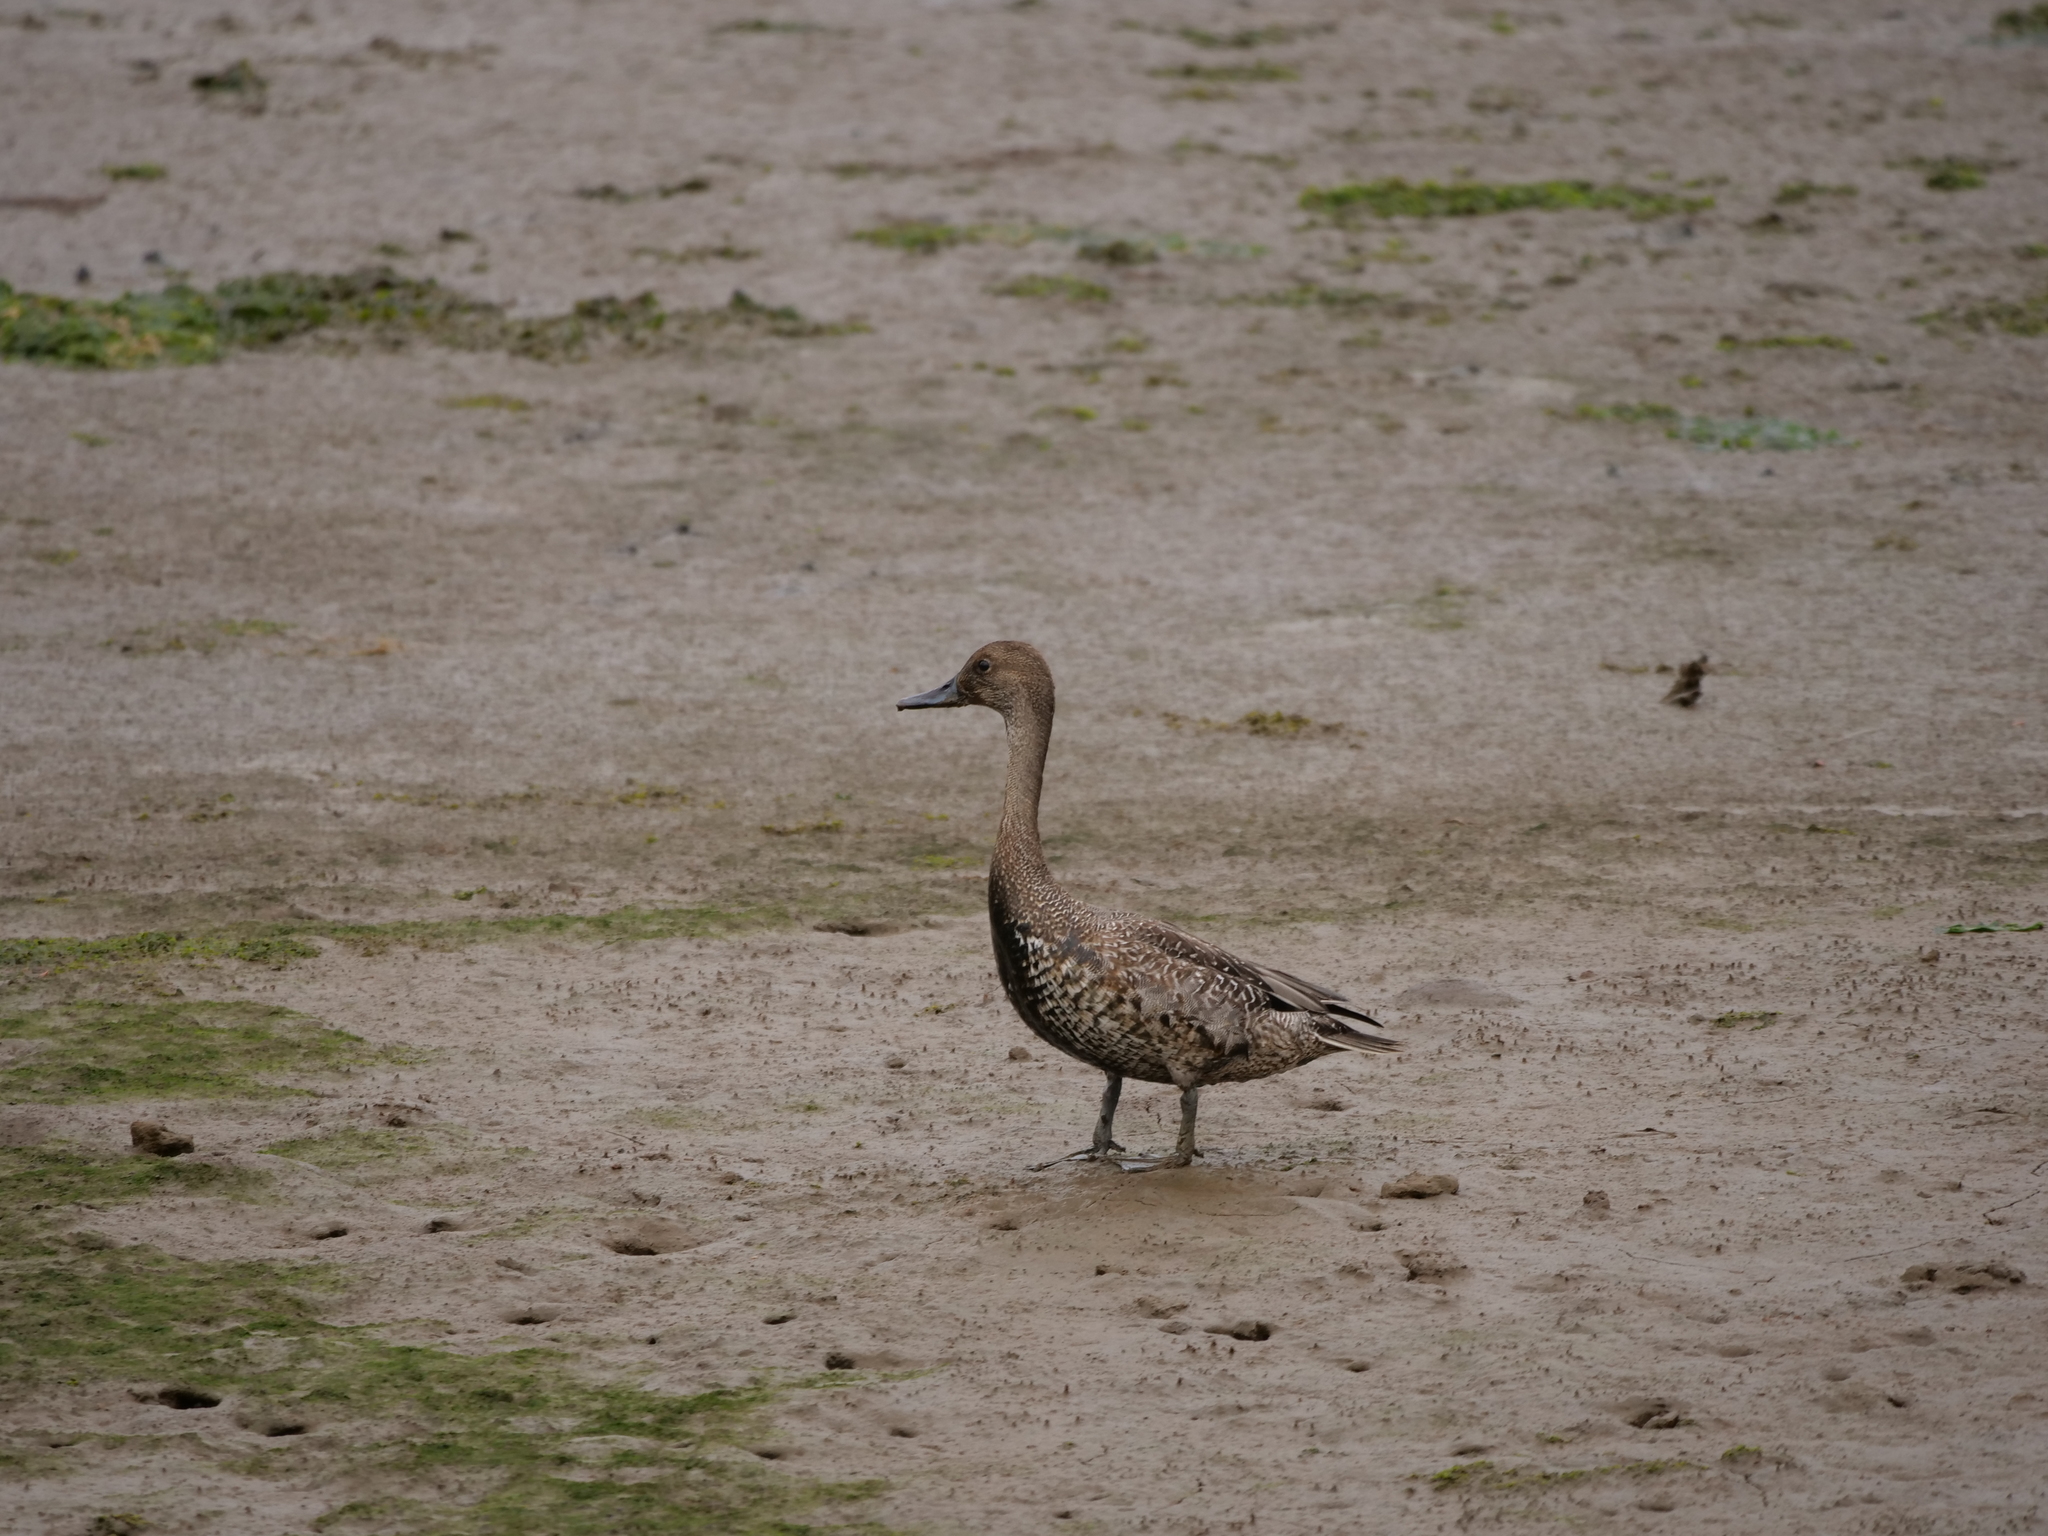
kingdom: Animalia
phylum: Chordata
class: Aves
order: Anseriformes
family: Anatidae
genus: Anas
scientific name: Anas acuta
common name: Northern pintail
